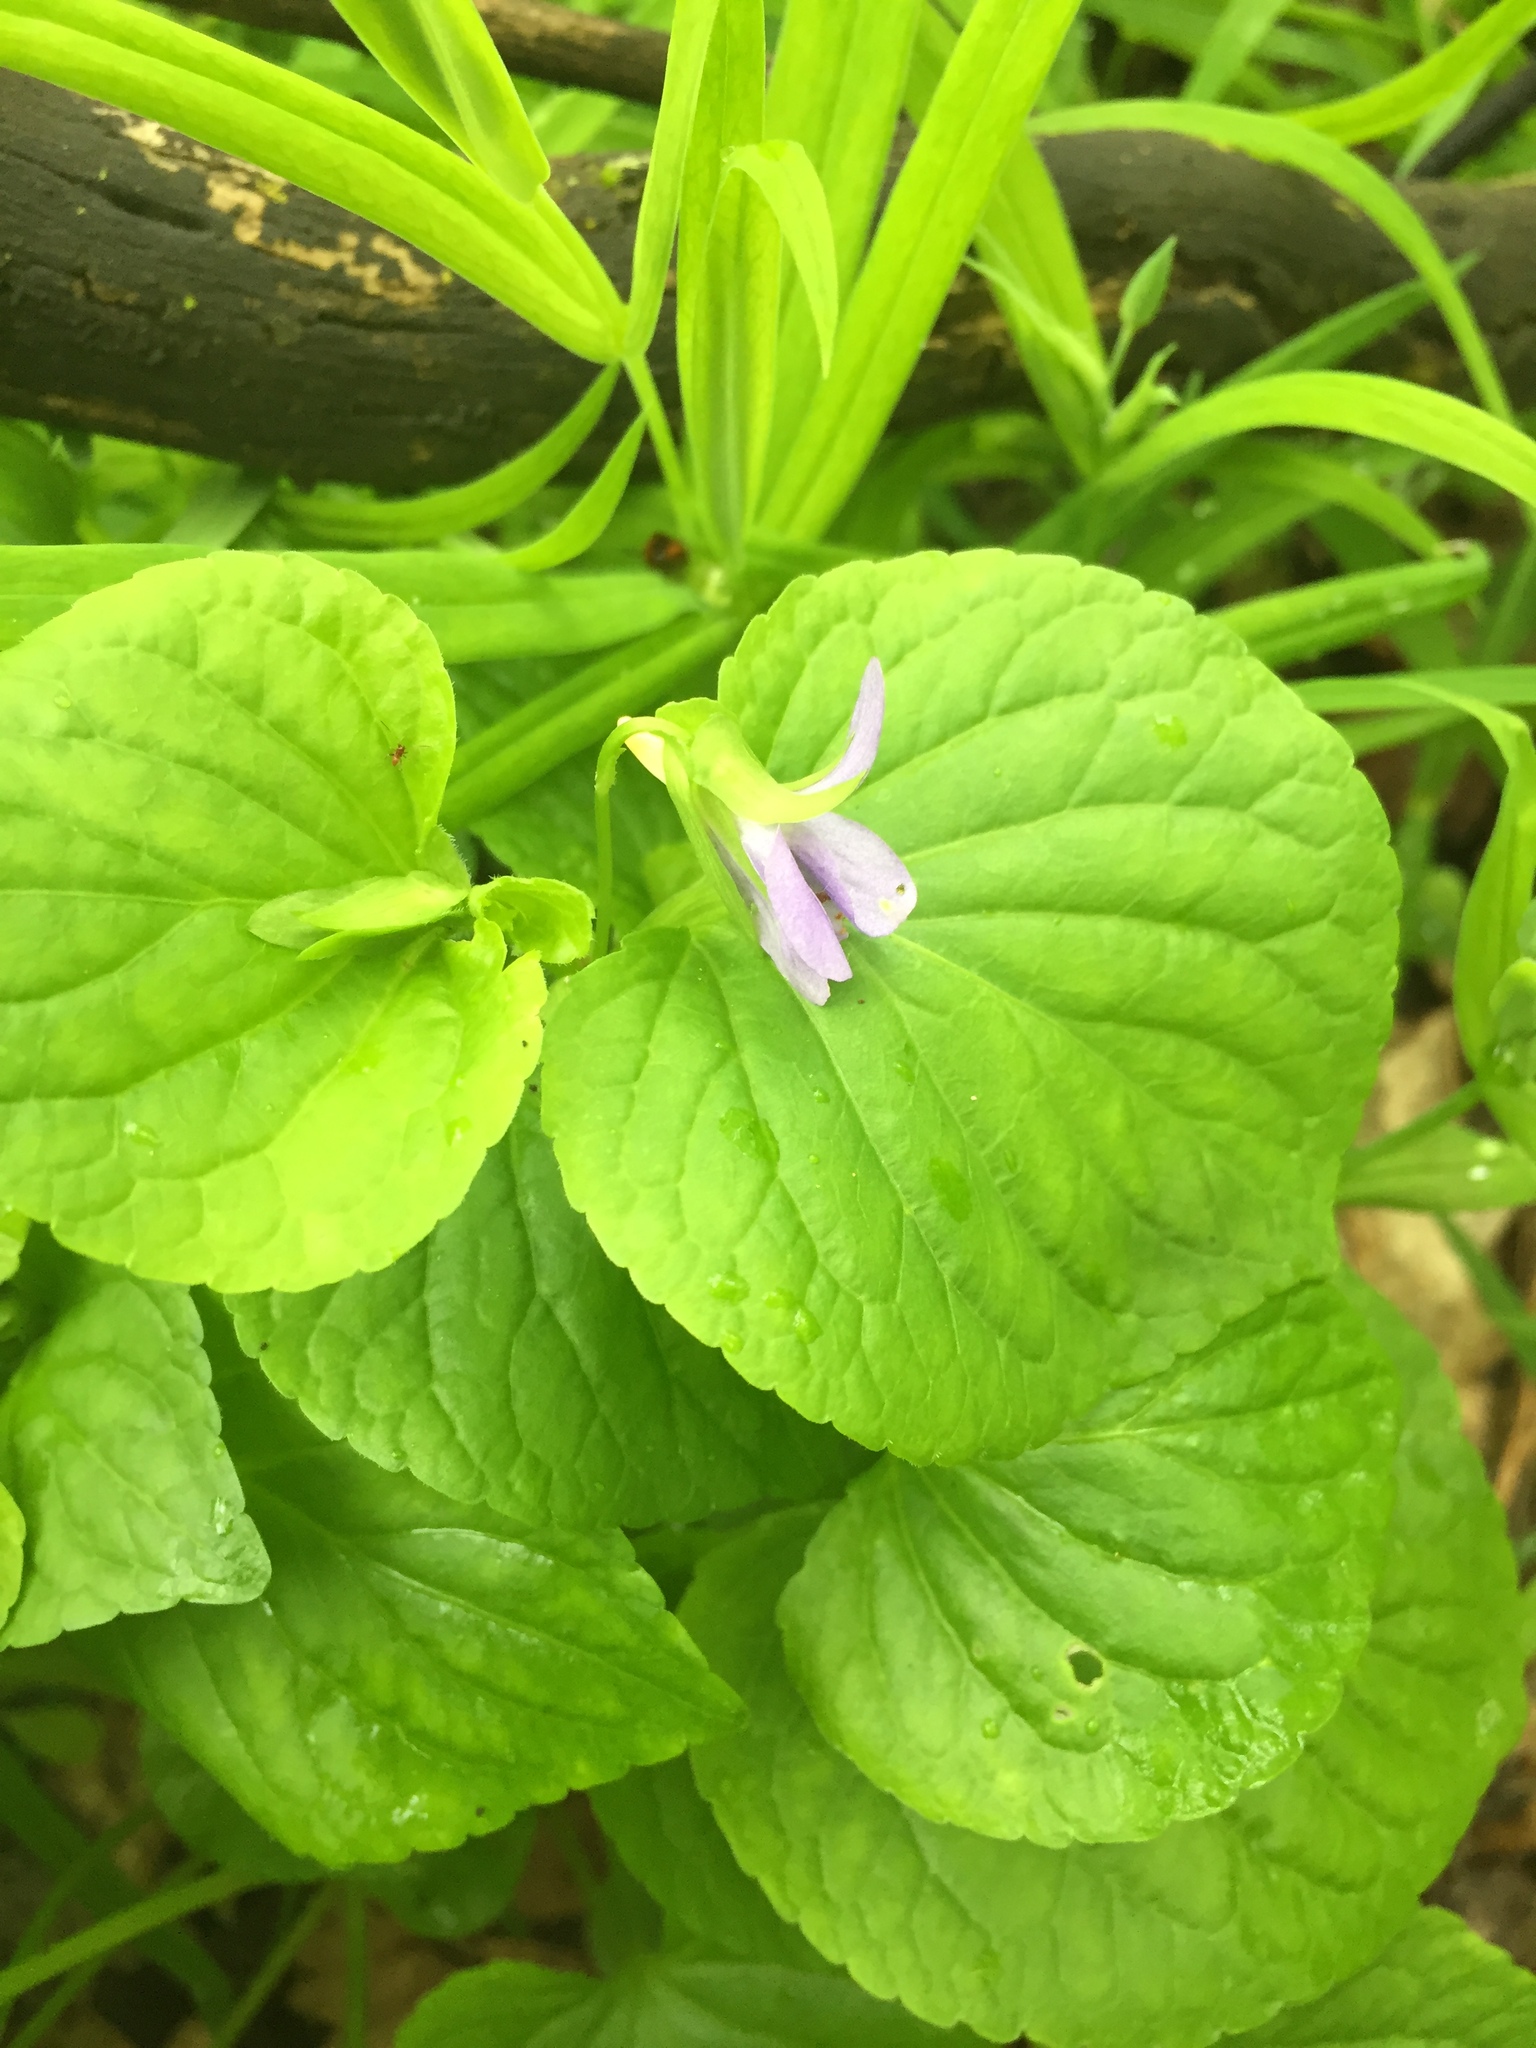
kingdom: Plantae
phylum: Tracheophyta
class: Magnoliopsida
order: Malpighiales
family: Violaceae
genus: Viola
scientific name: Viola mirabilis
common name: Wonder violet
